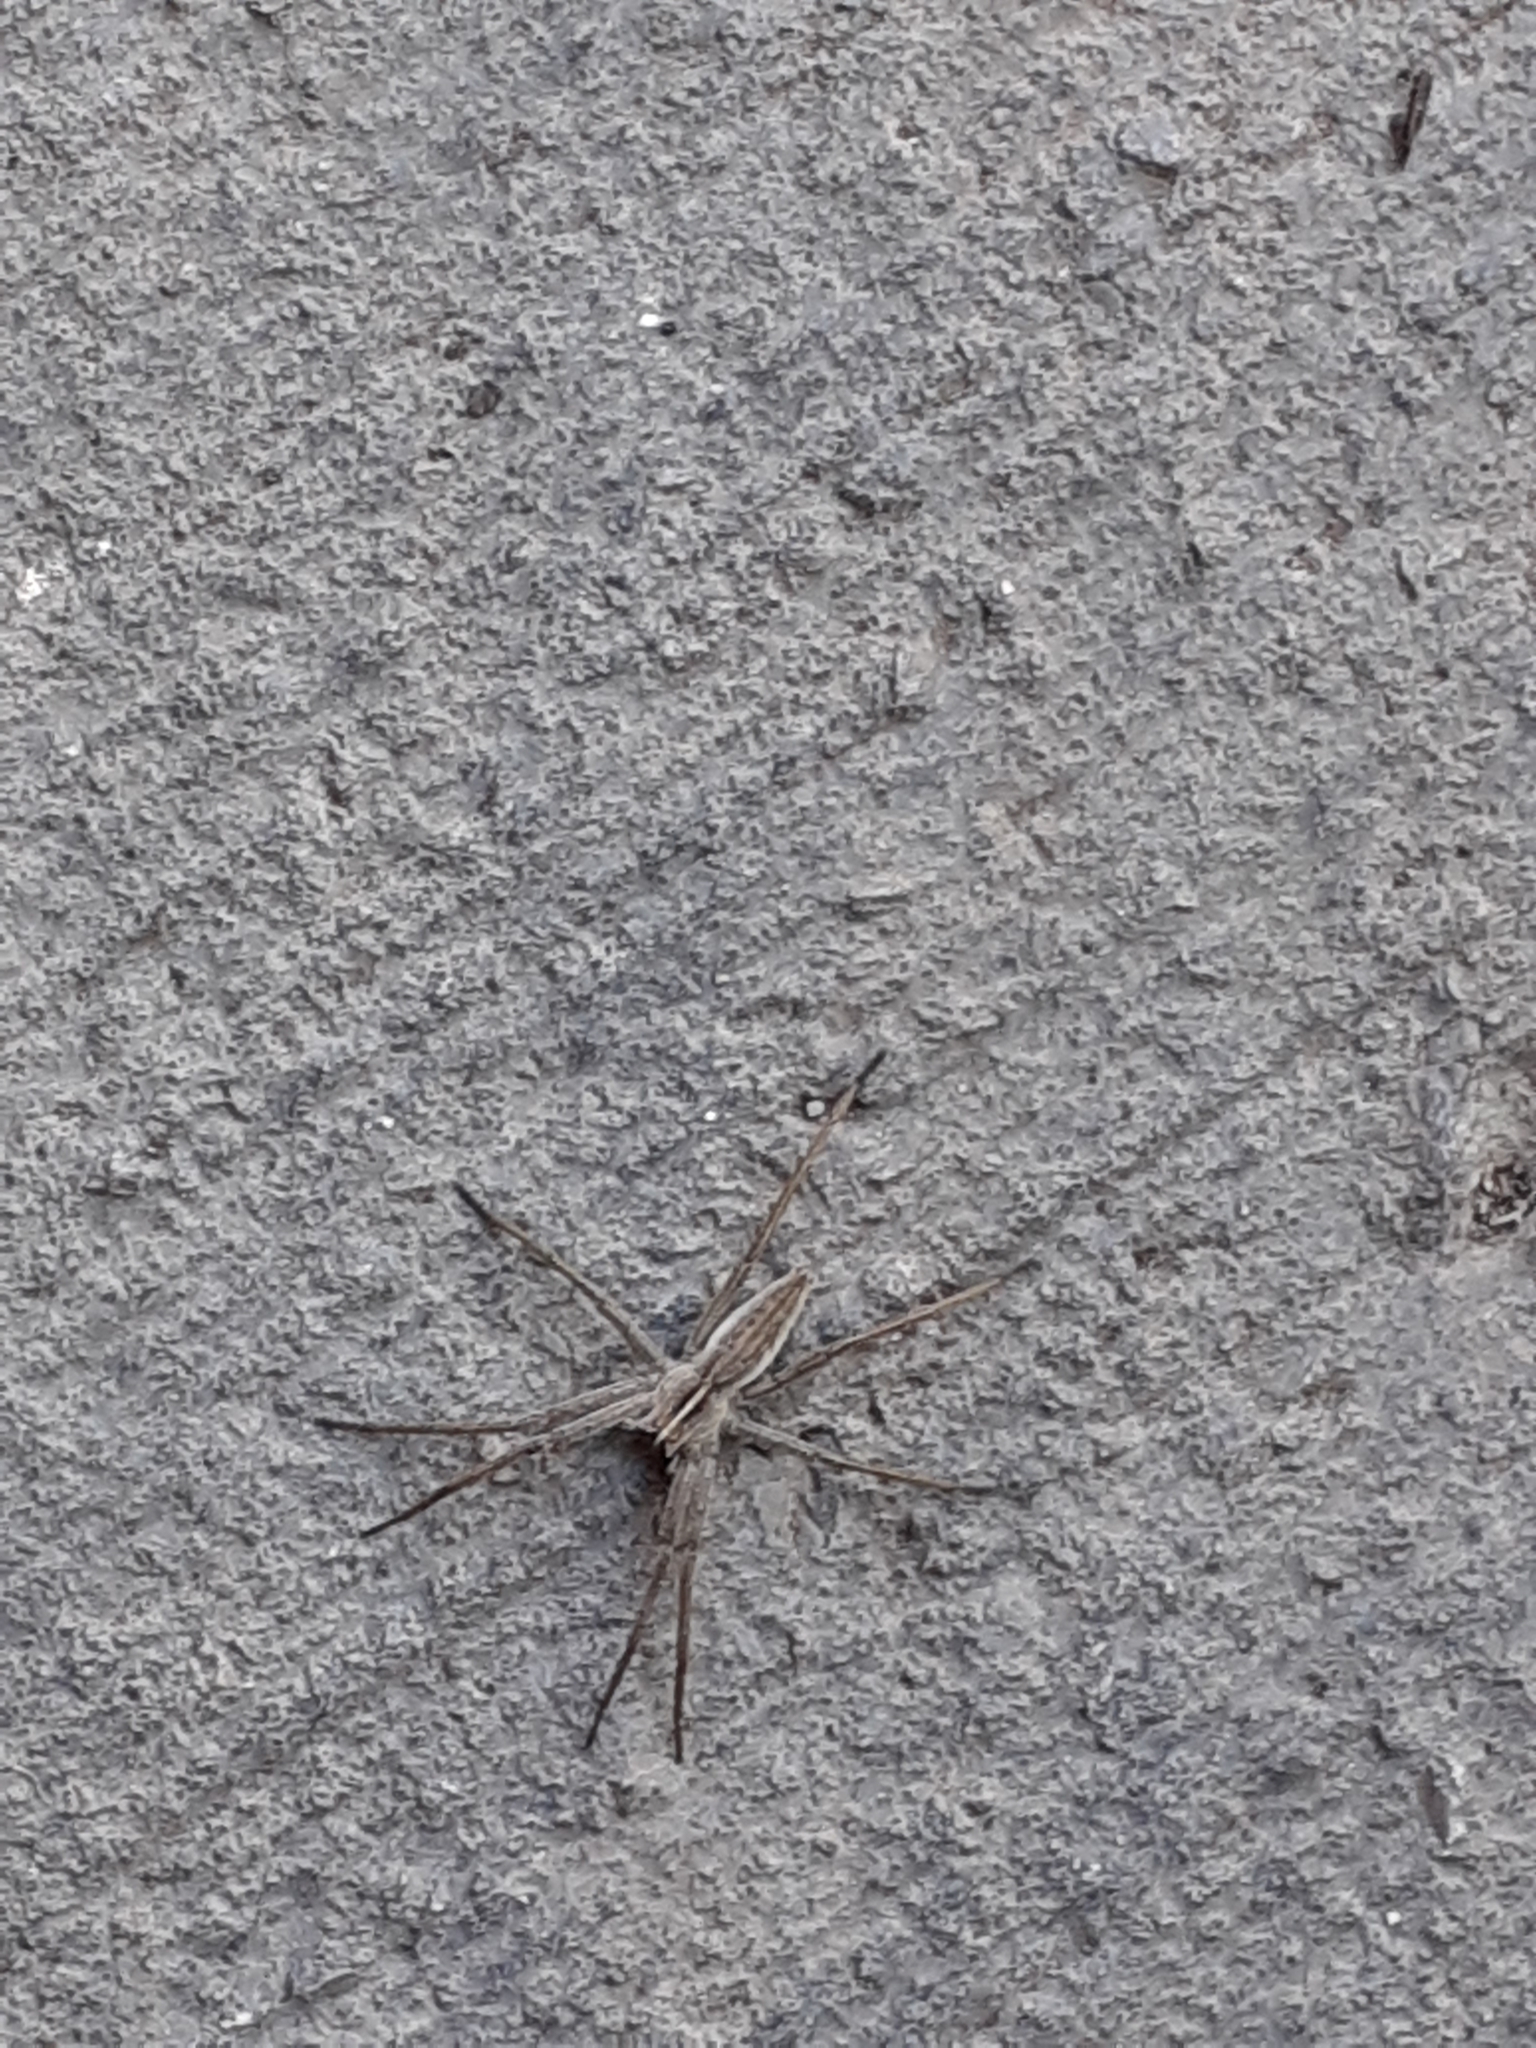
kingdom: Animalia
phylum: Arthropoda
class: Arachnida
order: Araneae
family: Pisauridae
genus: Pisaura
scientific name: Pisaura mirabilis
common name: Tent spider
